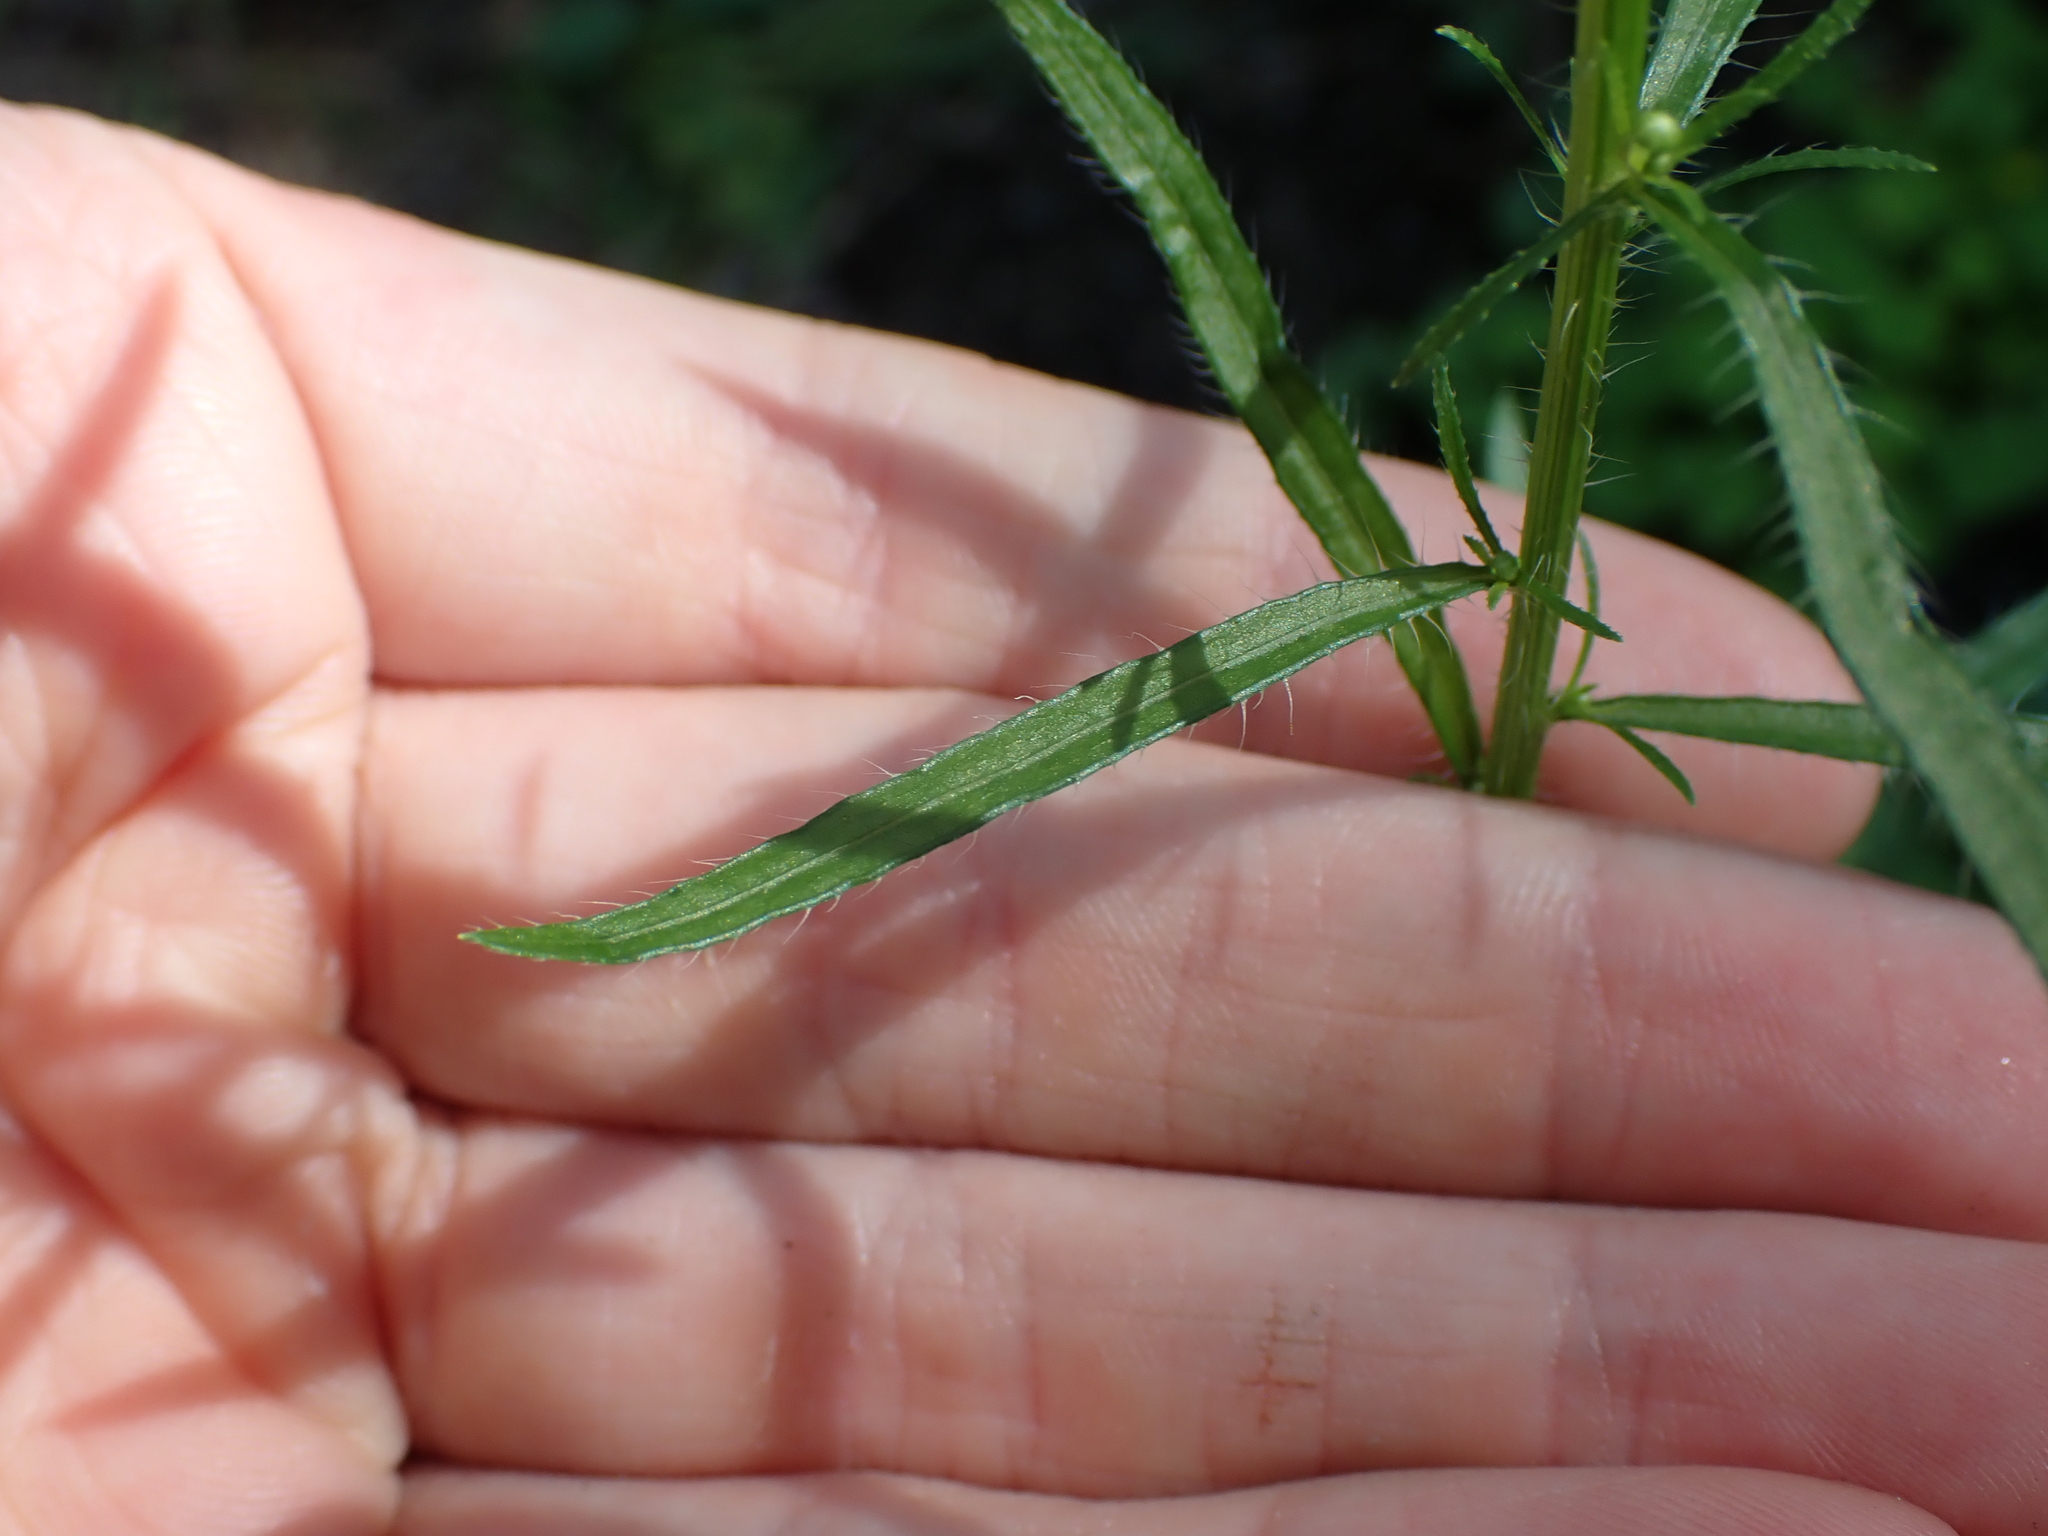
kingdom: Plantae
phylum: Tracheophyta
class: Magnoliopsida
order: Asterales
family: Asteraceae
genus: Erigeron
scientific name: Erigeron canadensis
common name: Canadian fleabane
